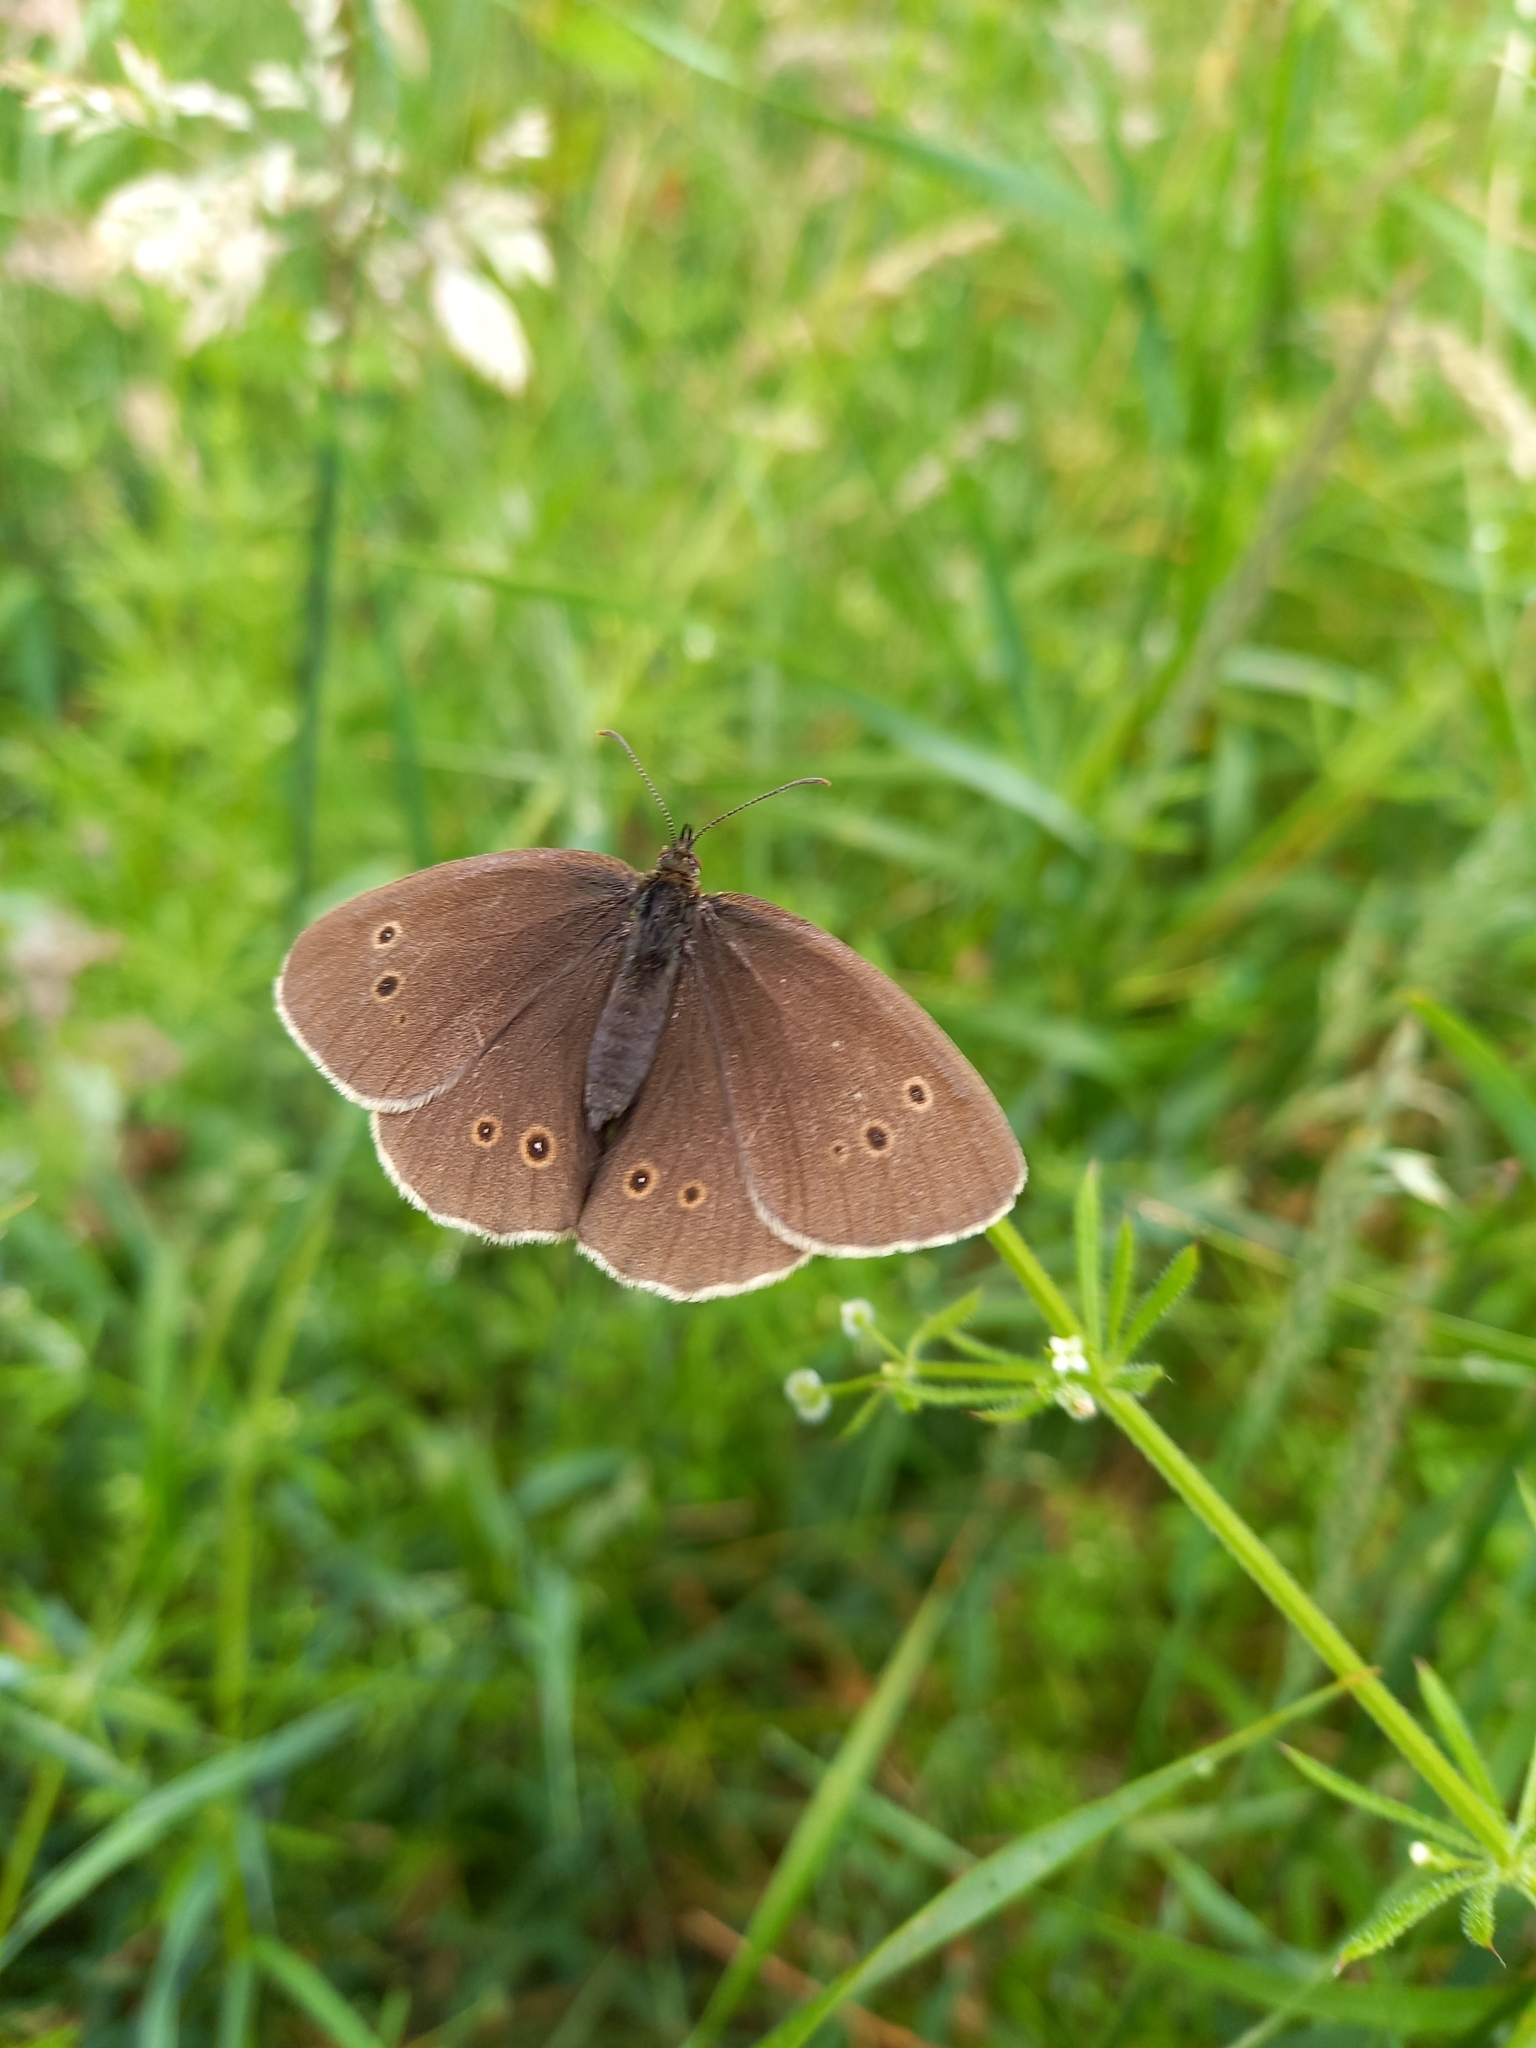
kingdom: Animalia
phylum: Arthropoda
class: Insecta
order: Lepidoptera
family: Nymphalidae
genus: Aphantopus
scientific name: Aphantopus hyperantus
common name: Ringlet
